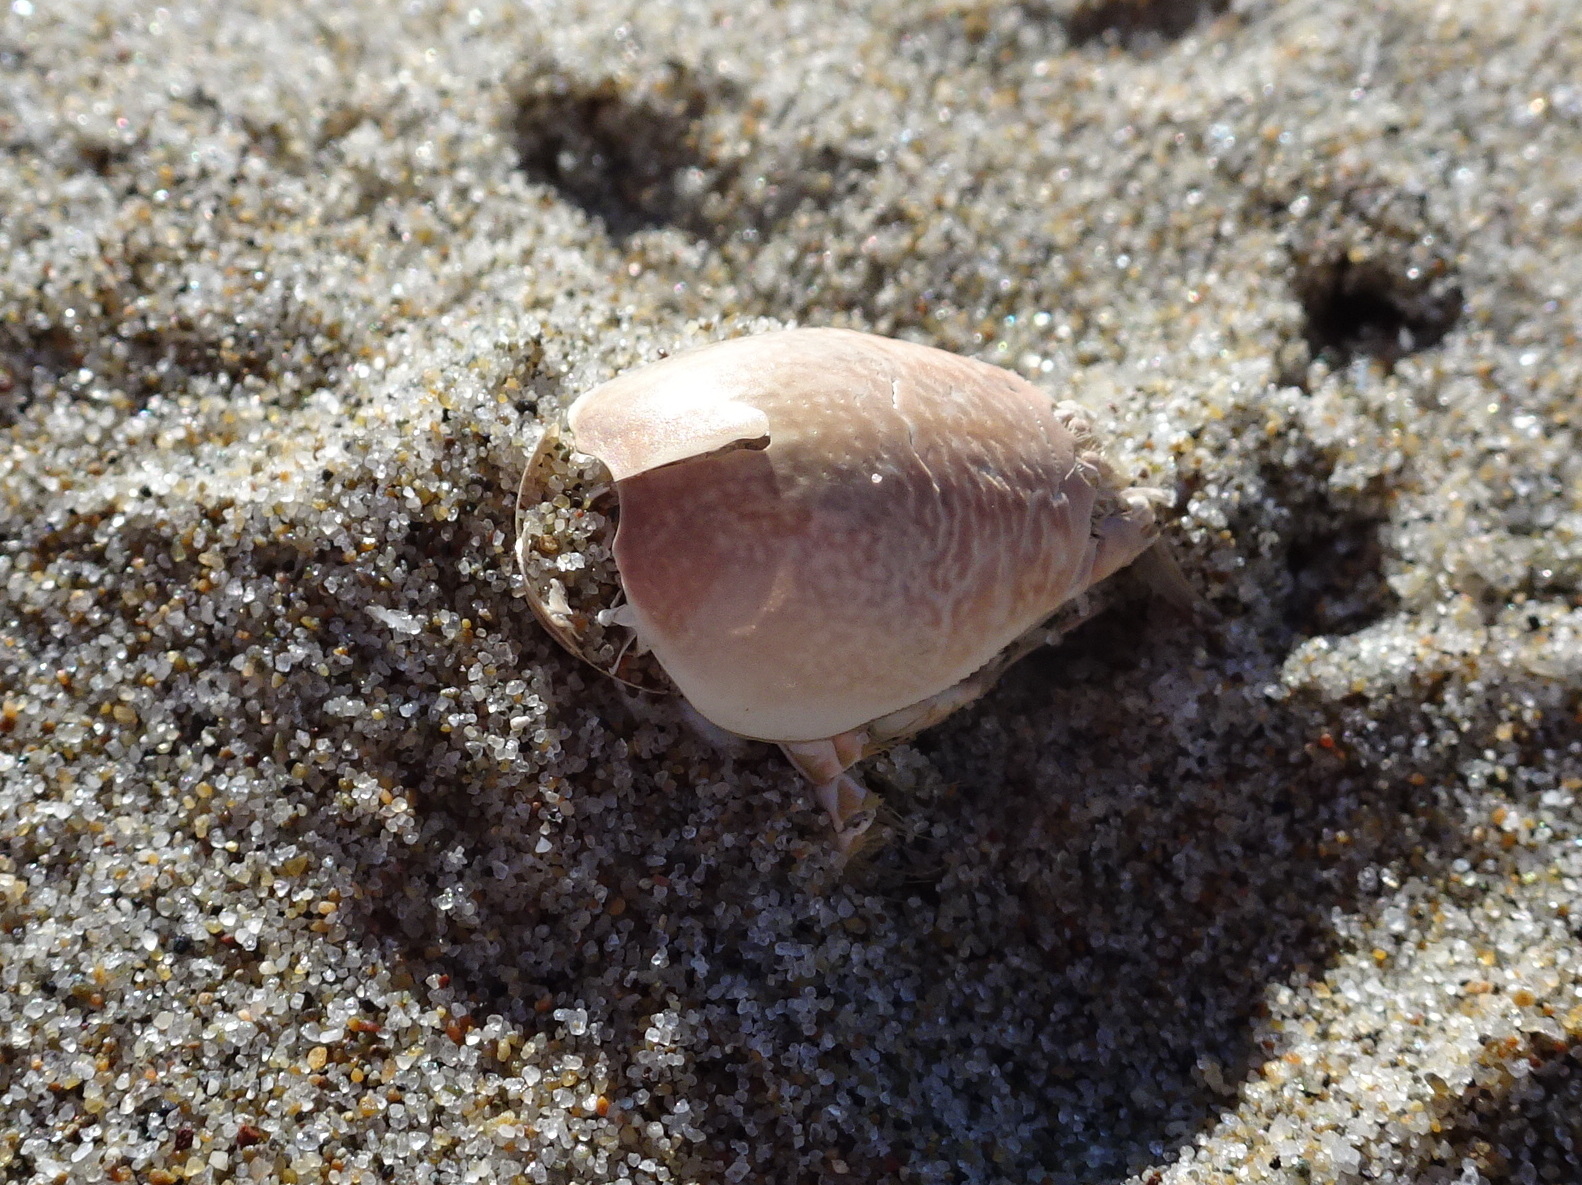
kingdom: Animalia
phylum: Arthropoda
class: Malacostraca
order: Decapoda
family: Hippidae
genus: Emerita
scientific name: Emerita analoga
